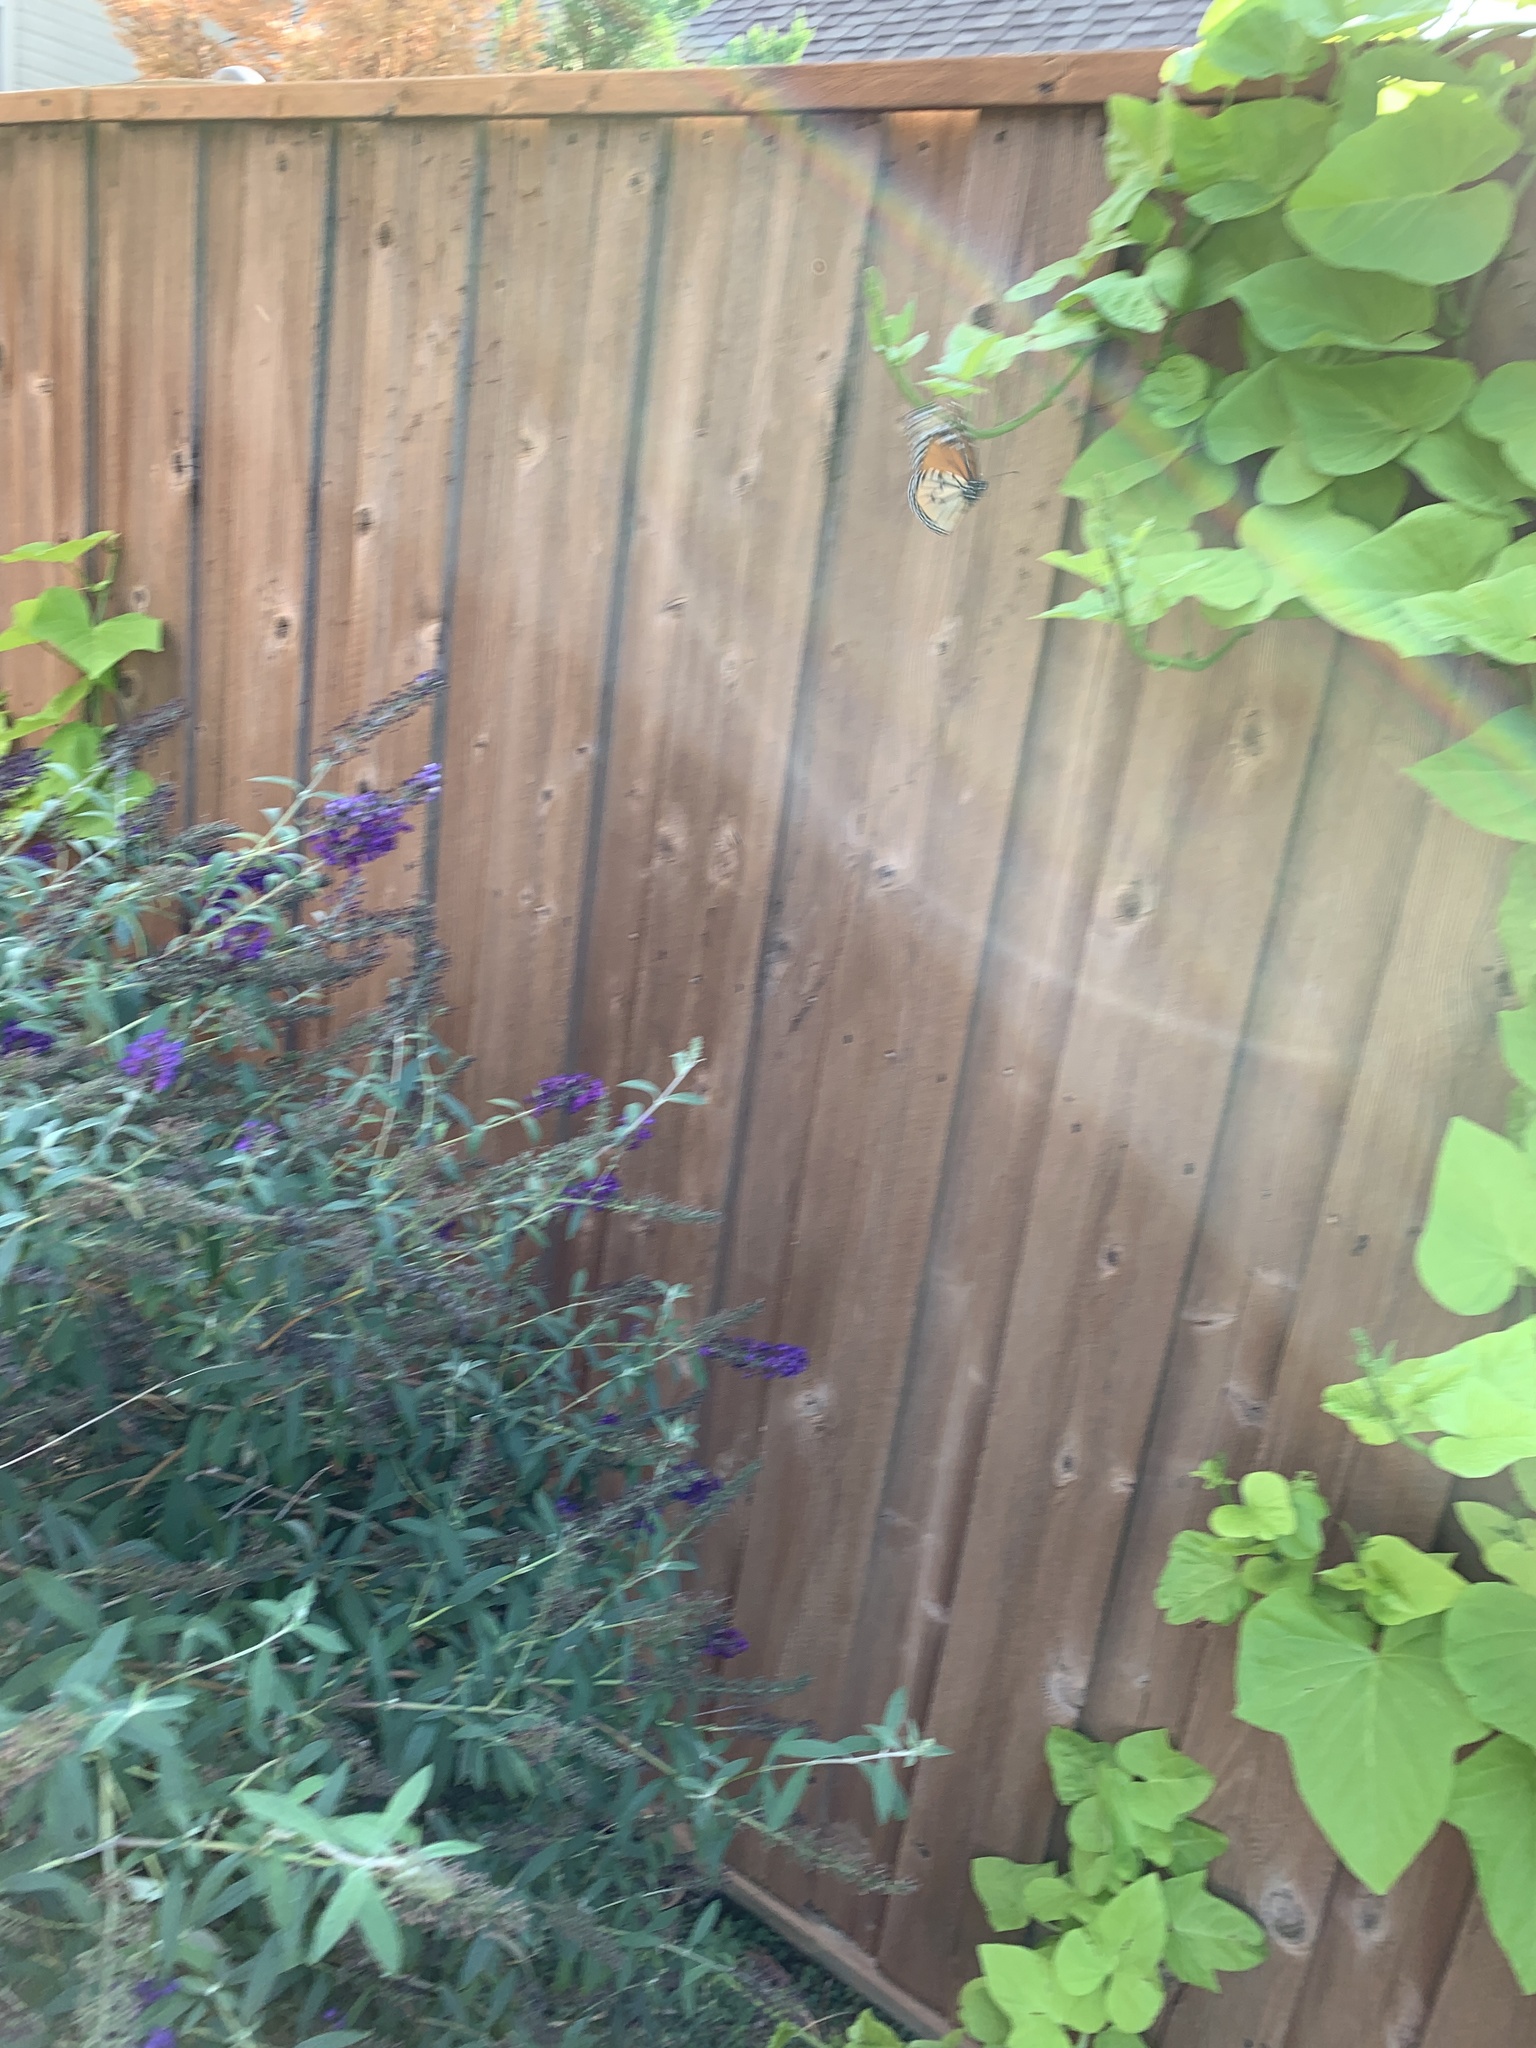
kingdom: Animalia
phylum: Arthropoda
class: Insecta
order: Lepidoptera
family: Nymphalidae
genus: Danaus
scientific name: Danaus plexippus
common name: Monarch
